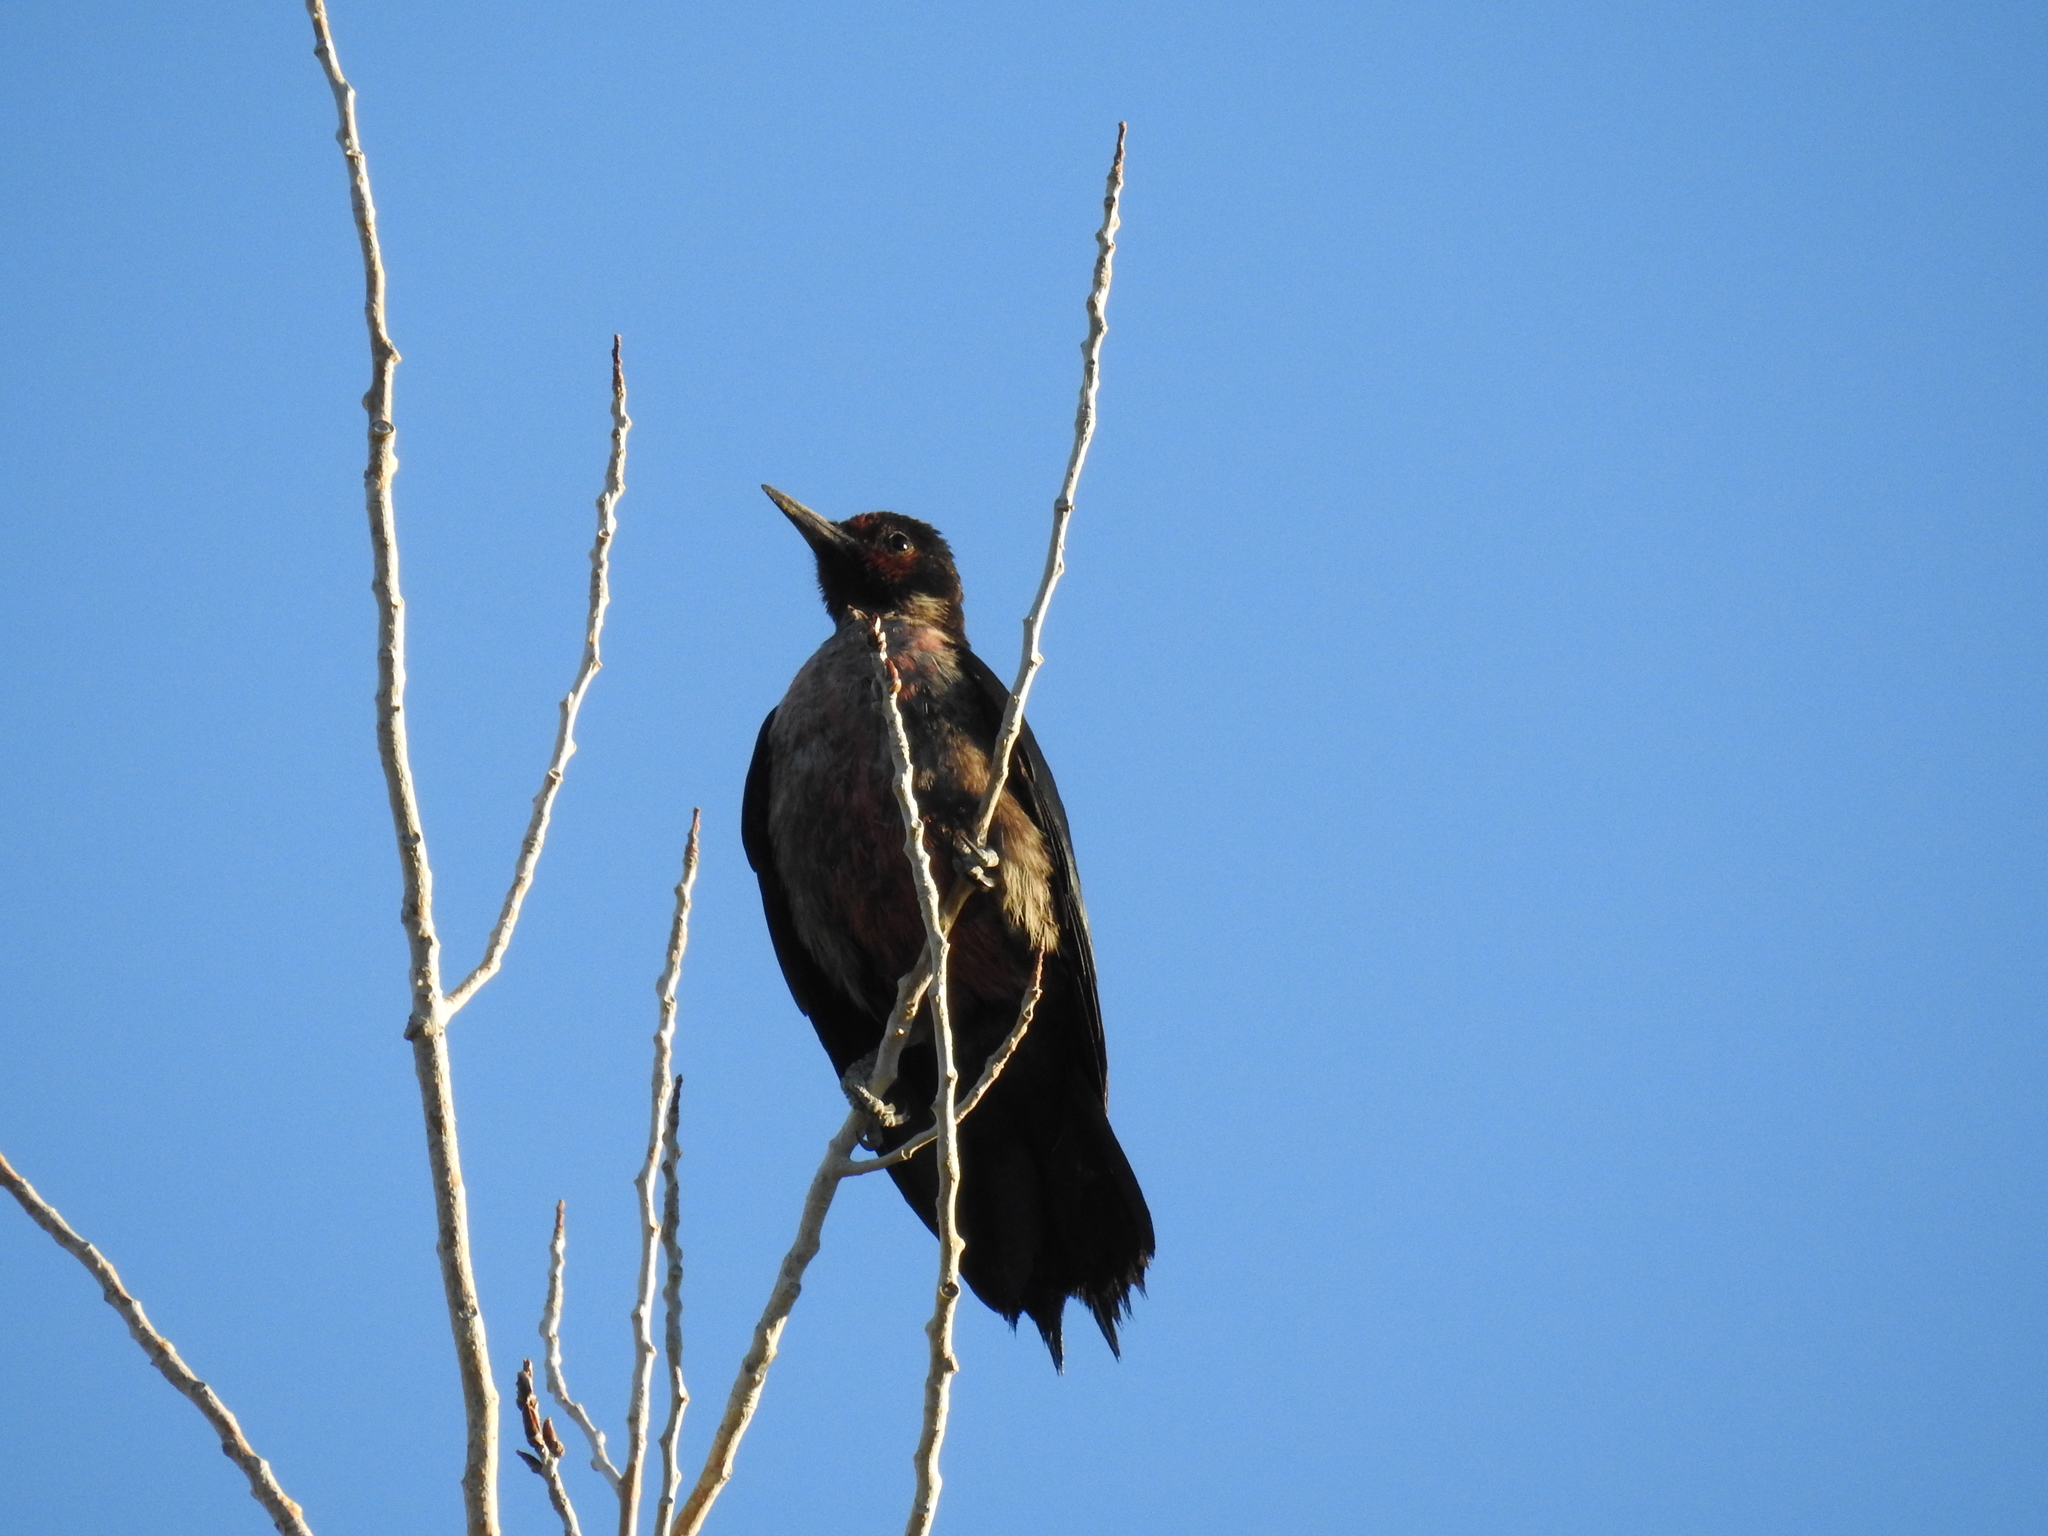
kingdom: Animalia
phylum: Chordata
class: Aves
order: Piciformes
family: Picidae
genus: Melanerpes
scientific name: Melanerpes lewis
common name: Lewis's woodpecker
